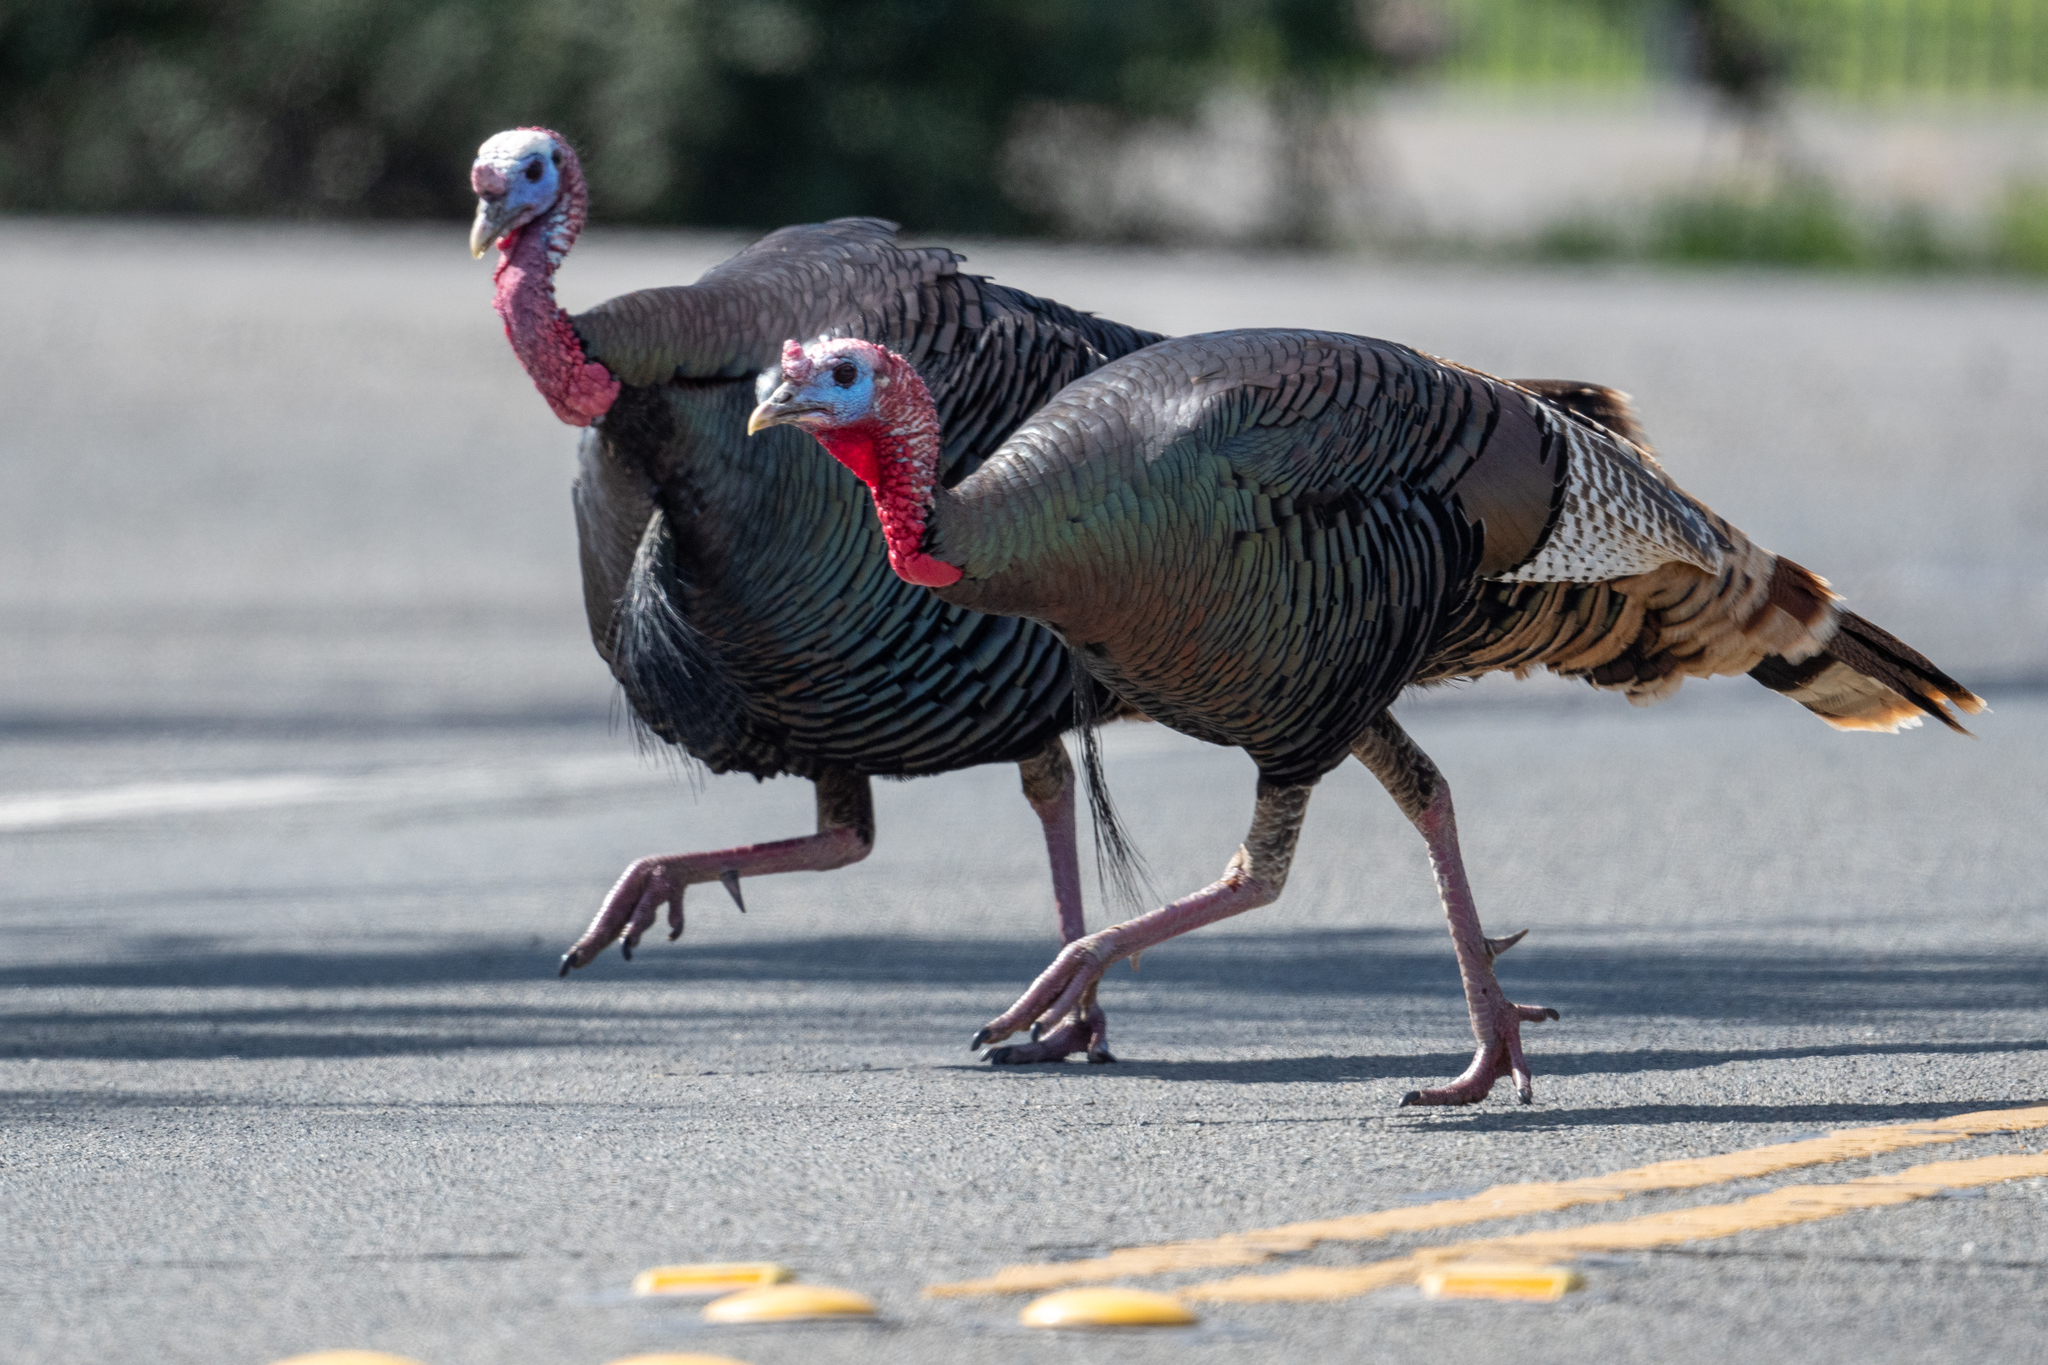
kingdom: Animalia
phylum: Chordata
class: Aves
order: Galliformes
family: Phasianidae
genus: Meleagris
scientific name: Meleagris gallopavo
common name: Wild turkey
